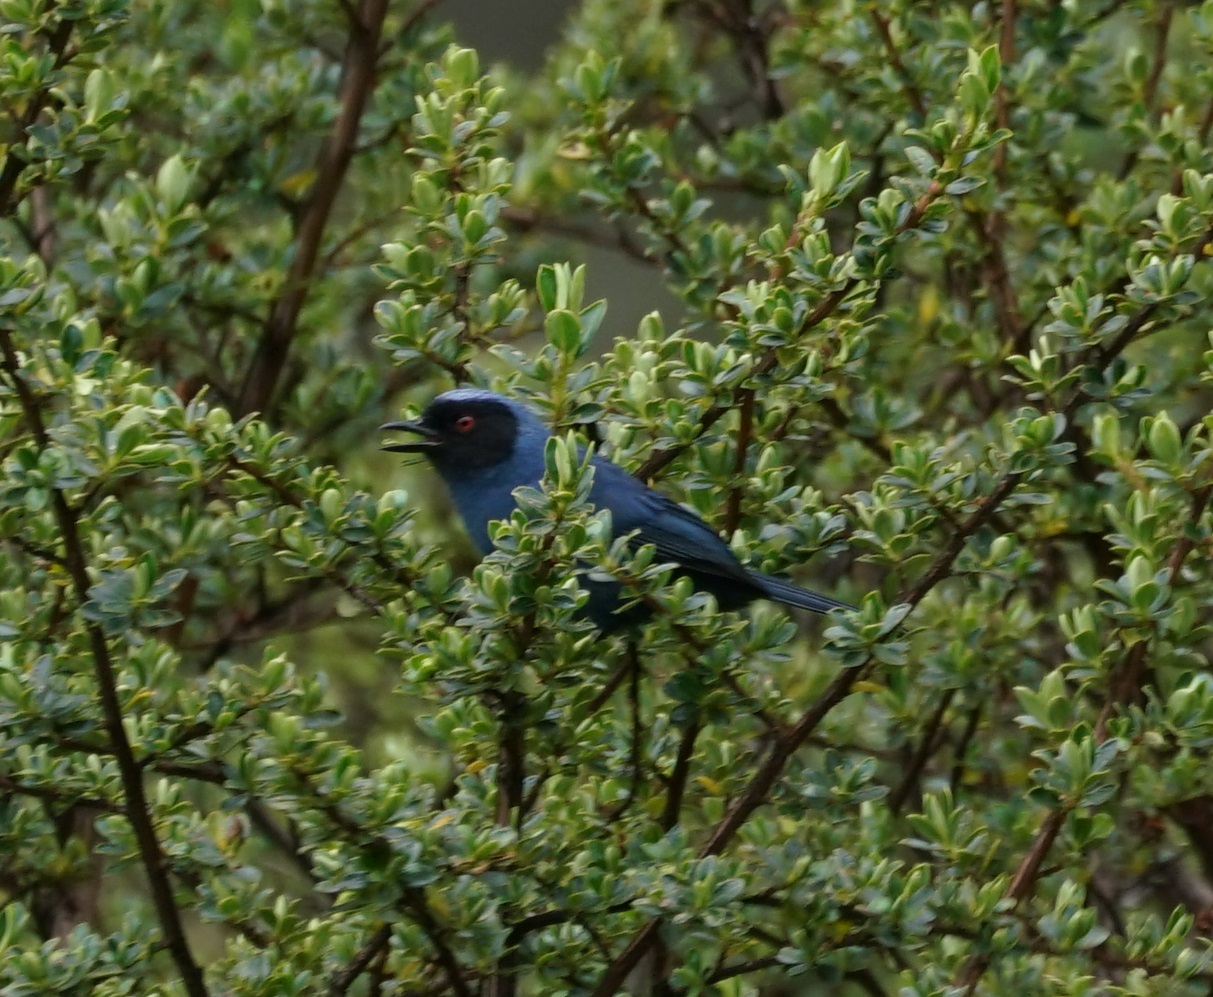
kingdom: Animalia
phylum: Chordata
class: Aves
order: Passeriformes
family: Thraupidae
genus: Diglossa
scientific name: Diglossa cyanea
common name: Masked flowerpiercer
